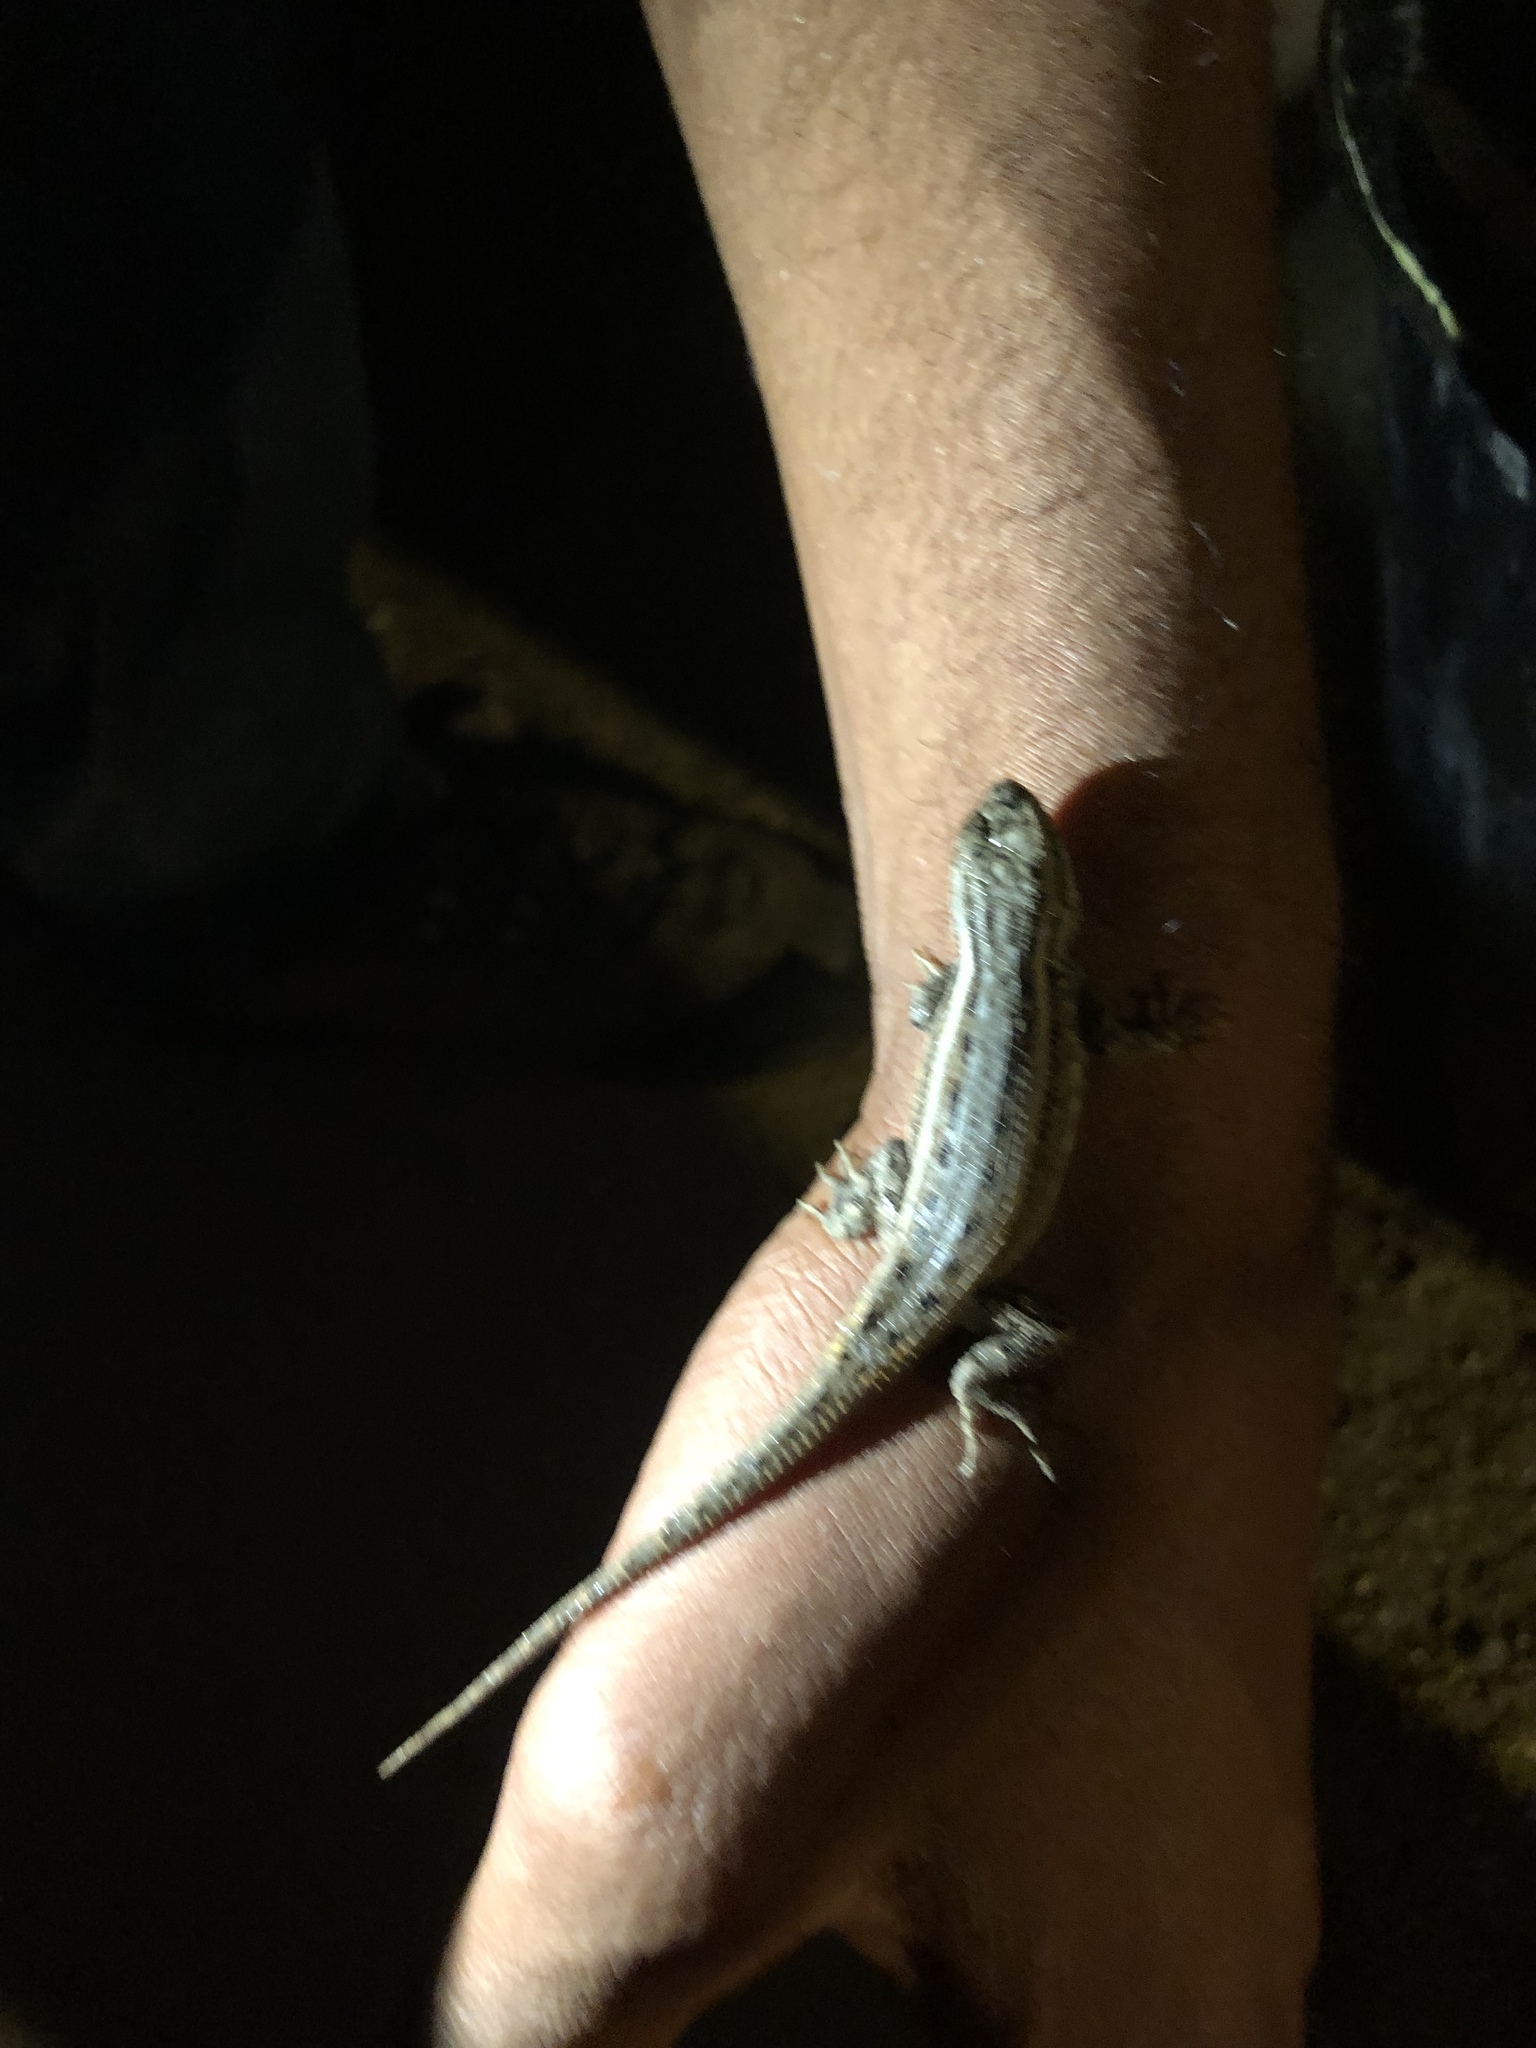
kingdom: Animalia
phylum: Chordata
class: Squamata
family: Phrynosomatidae
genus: Sceloporus
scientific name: Sceloporus tristichus
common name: Plateau fence lizard
